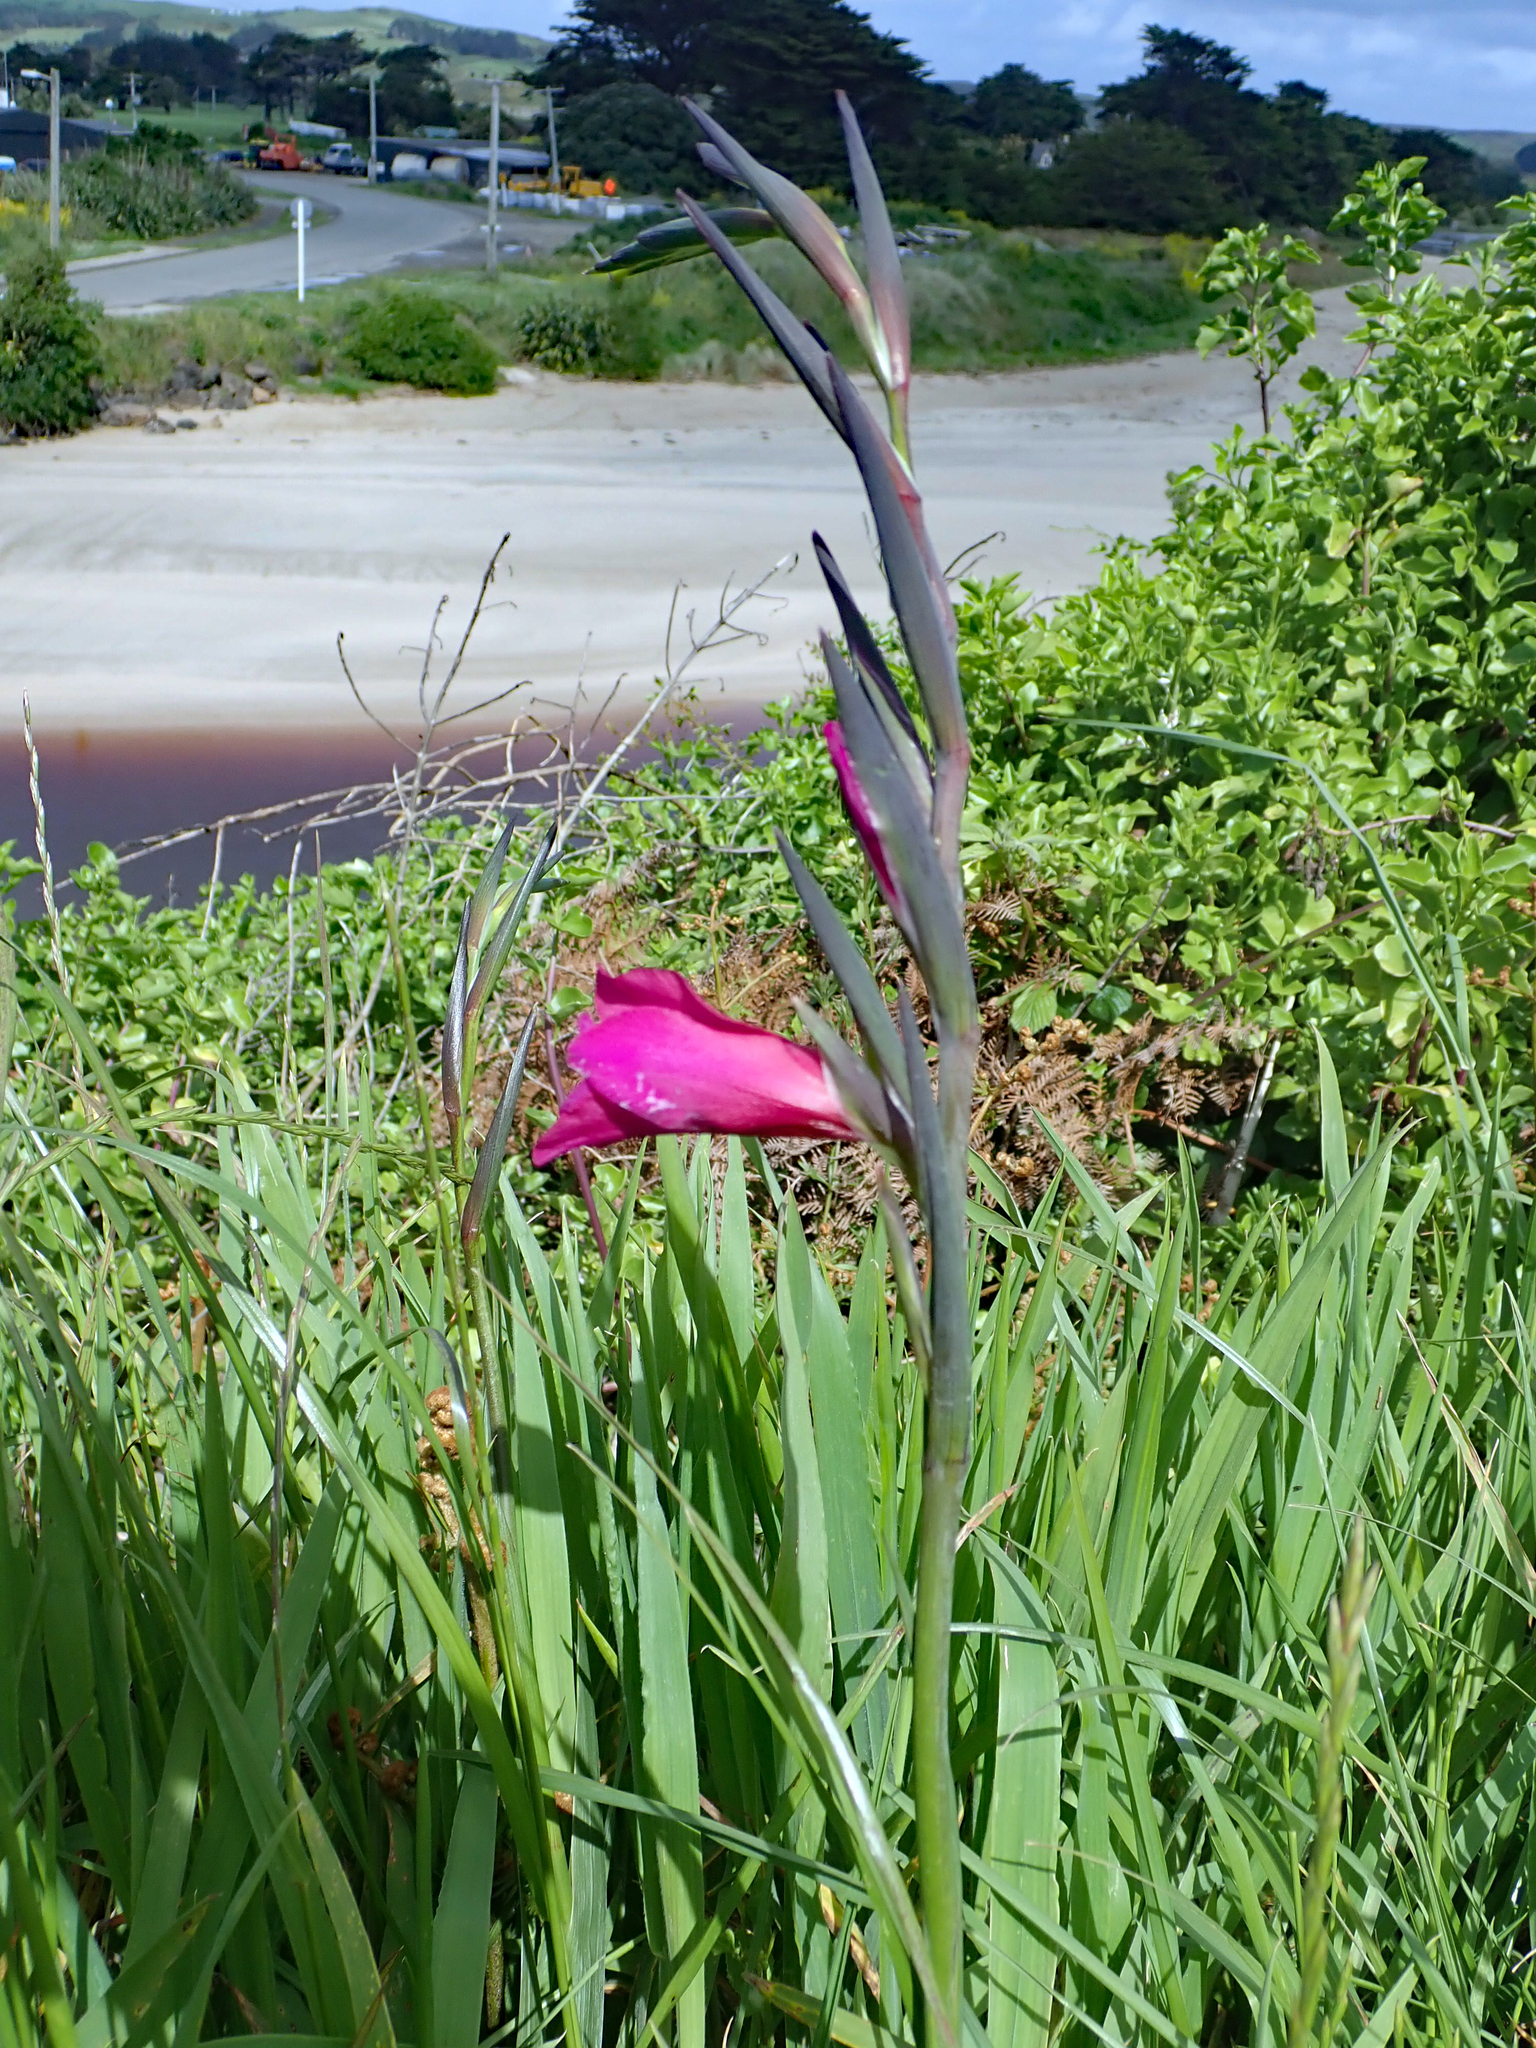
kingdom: Plantae
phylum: Tracheophyta
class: Liliopsida
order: Asparagales
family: Iridaceae
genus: Gladiolus
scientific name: Gladiolus byzantinus
